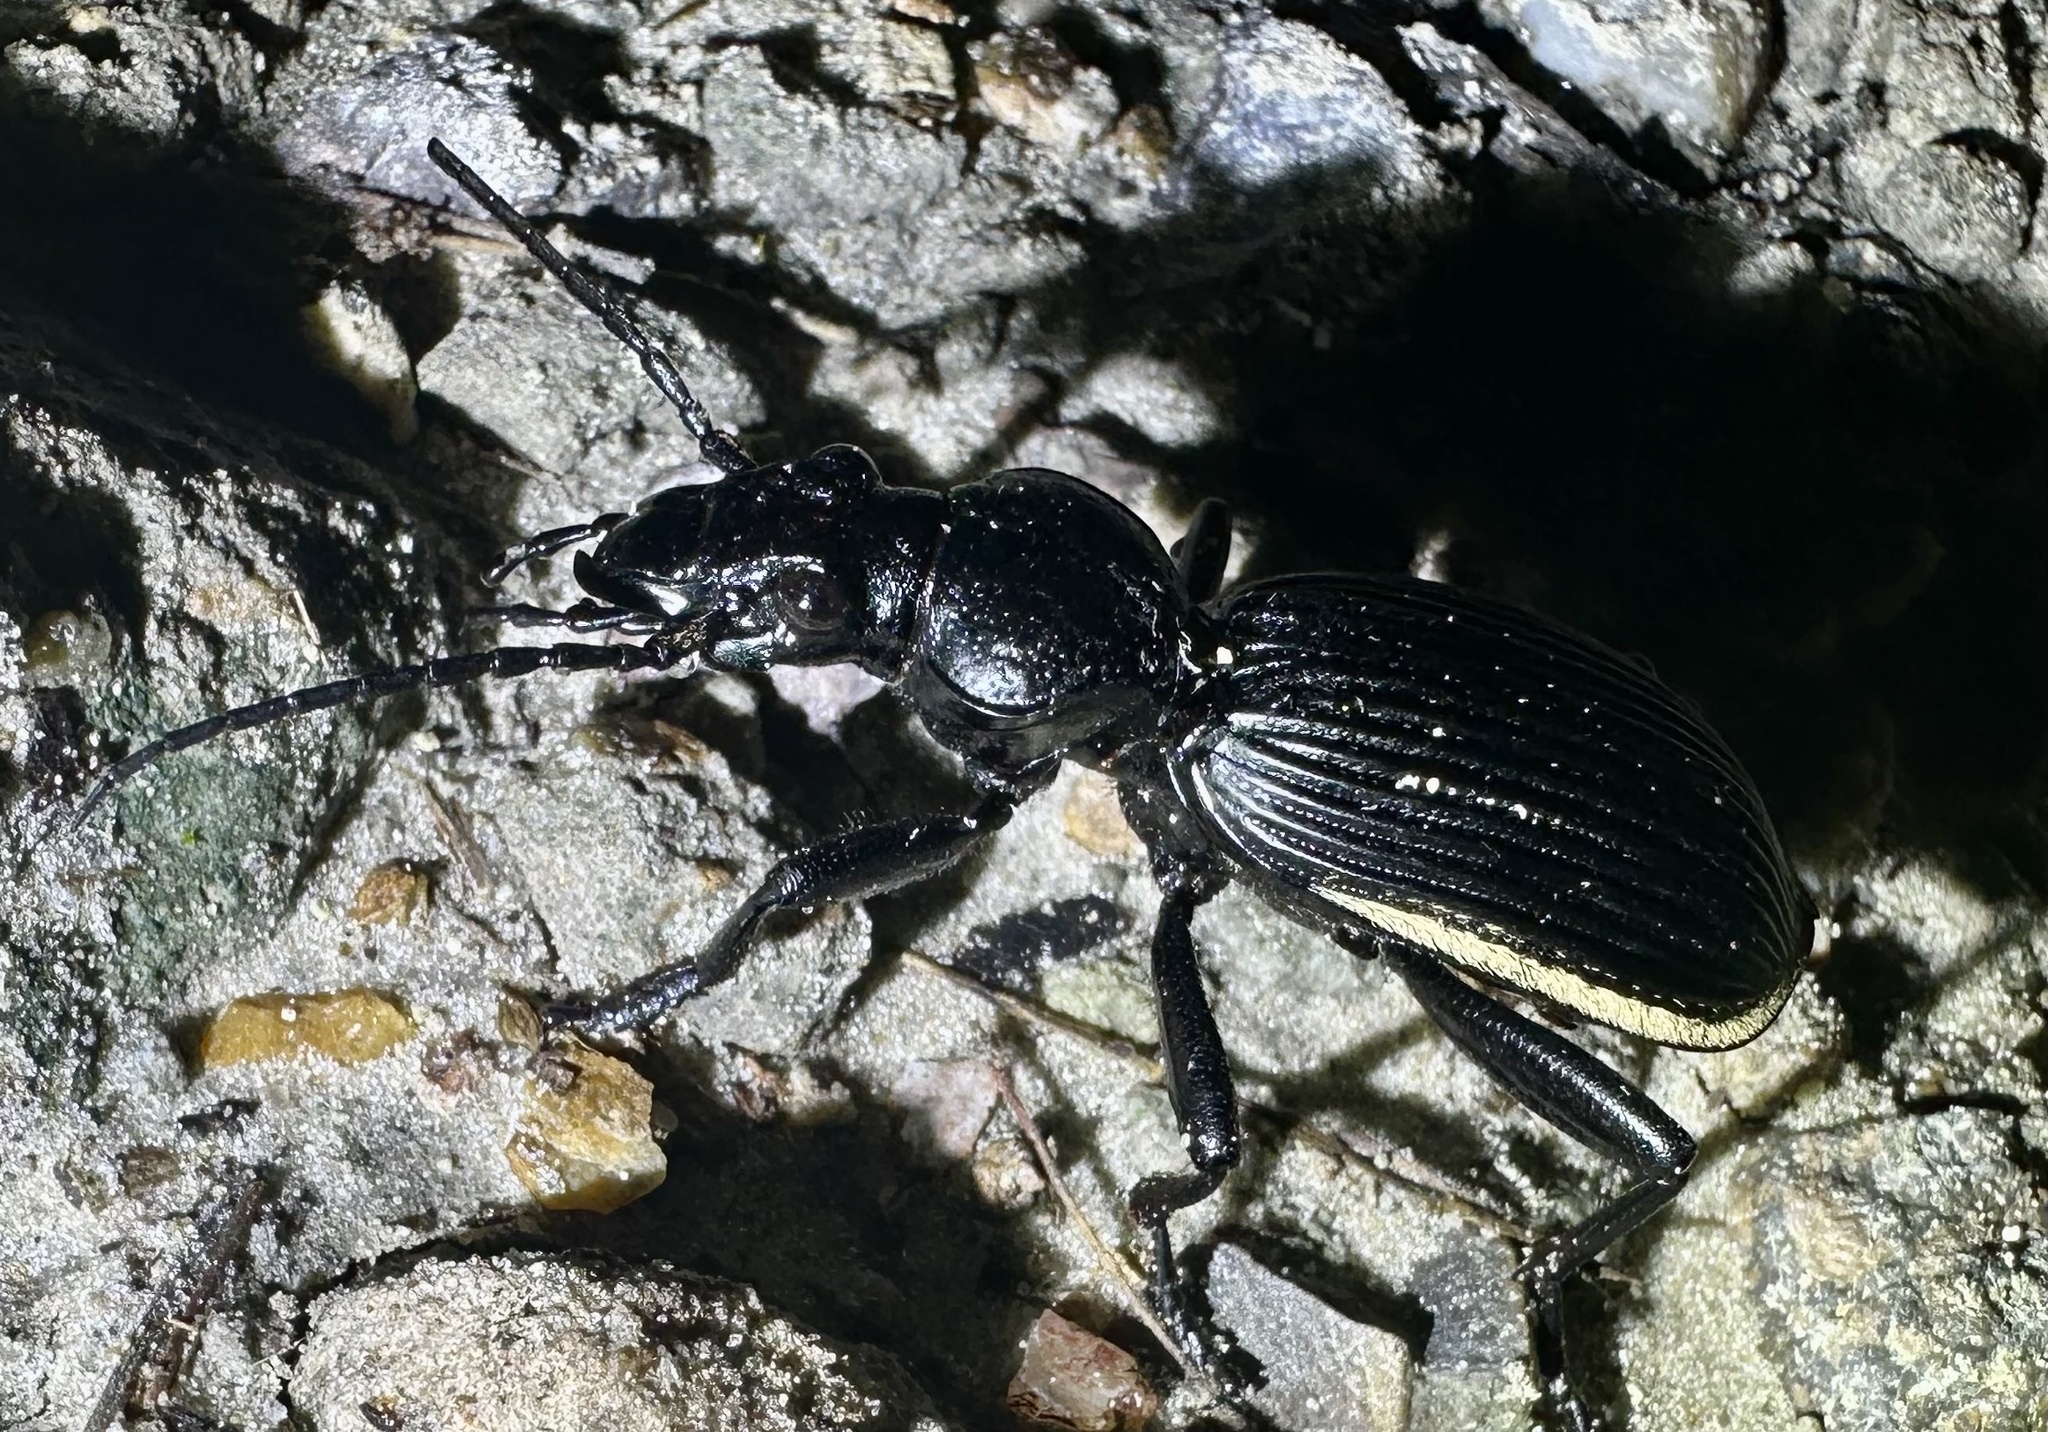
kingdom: Animalia
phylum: Arthropoda
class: Insecta
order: Coleoptera
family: Carabidae
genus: Anthia
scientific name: Anthia massilicata
